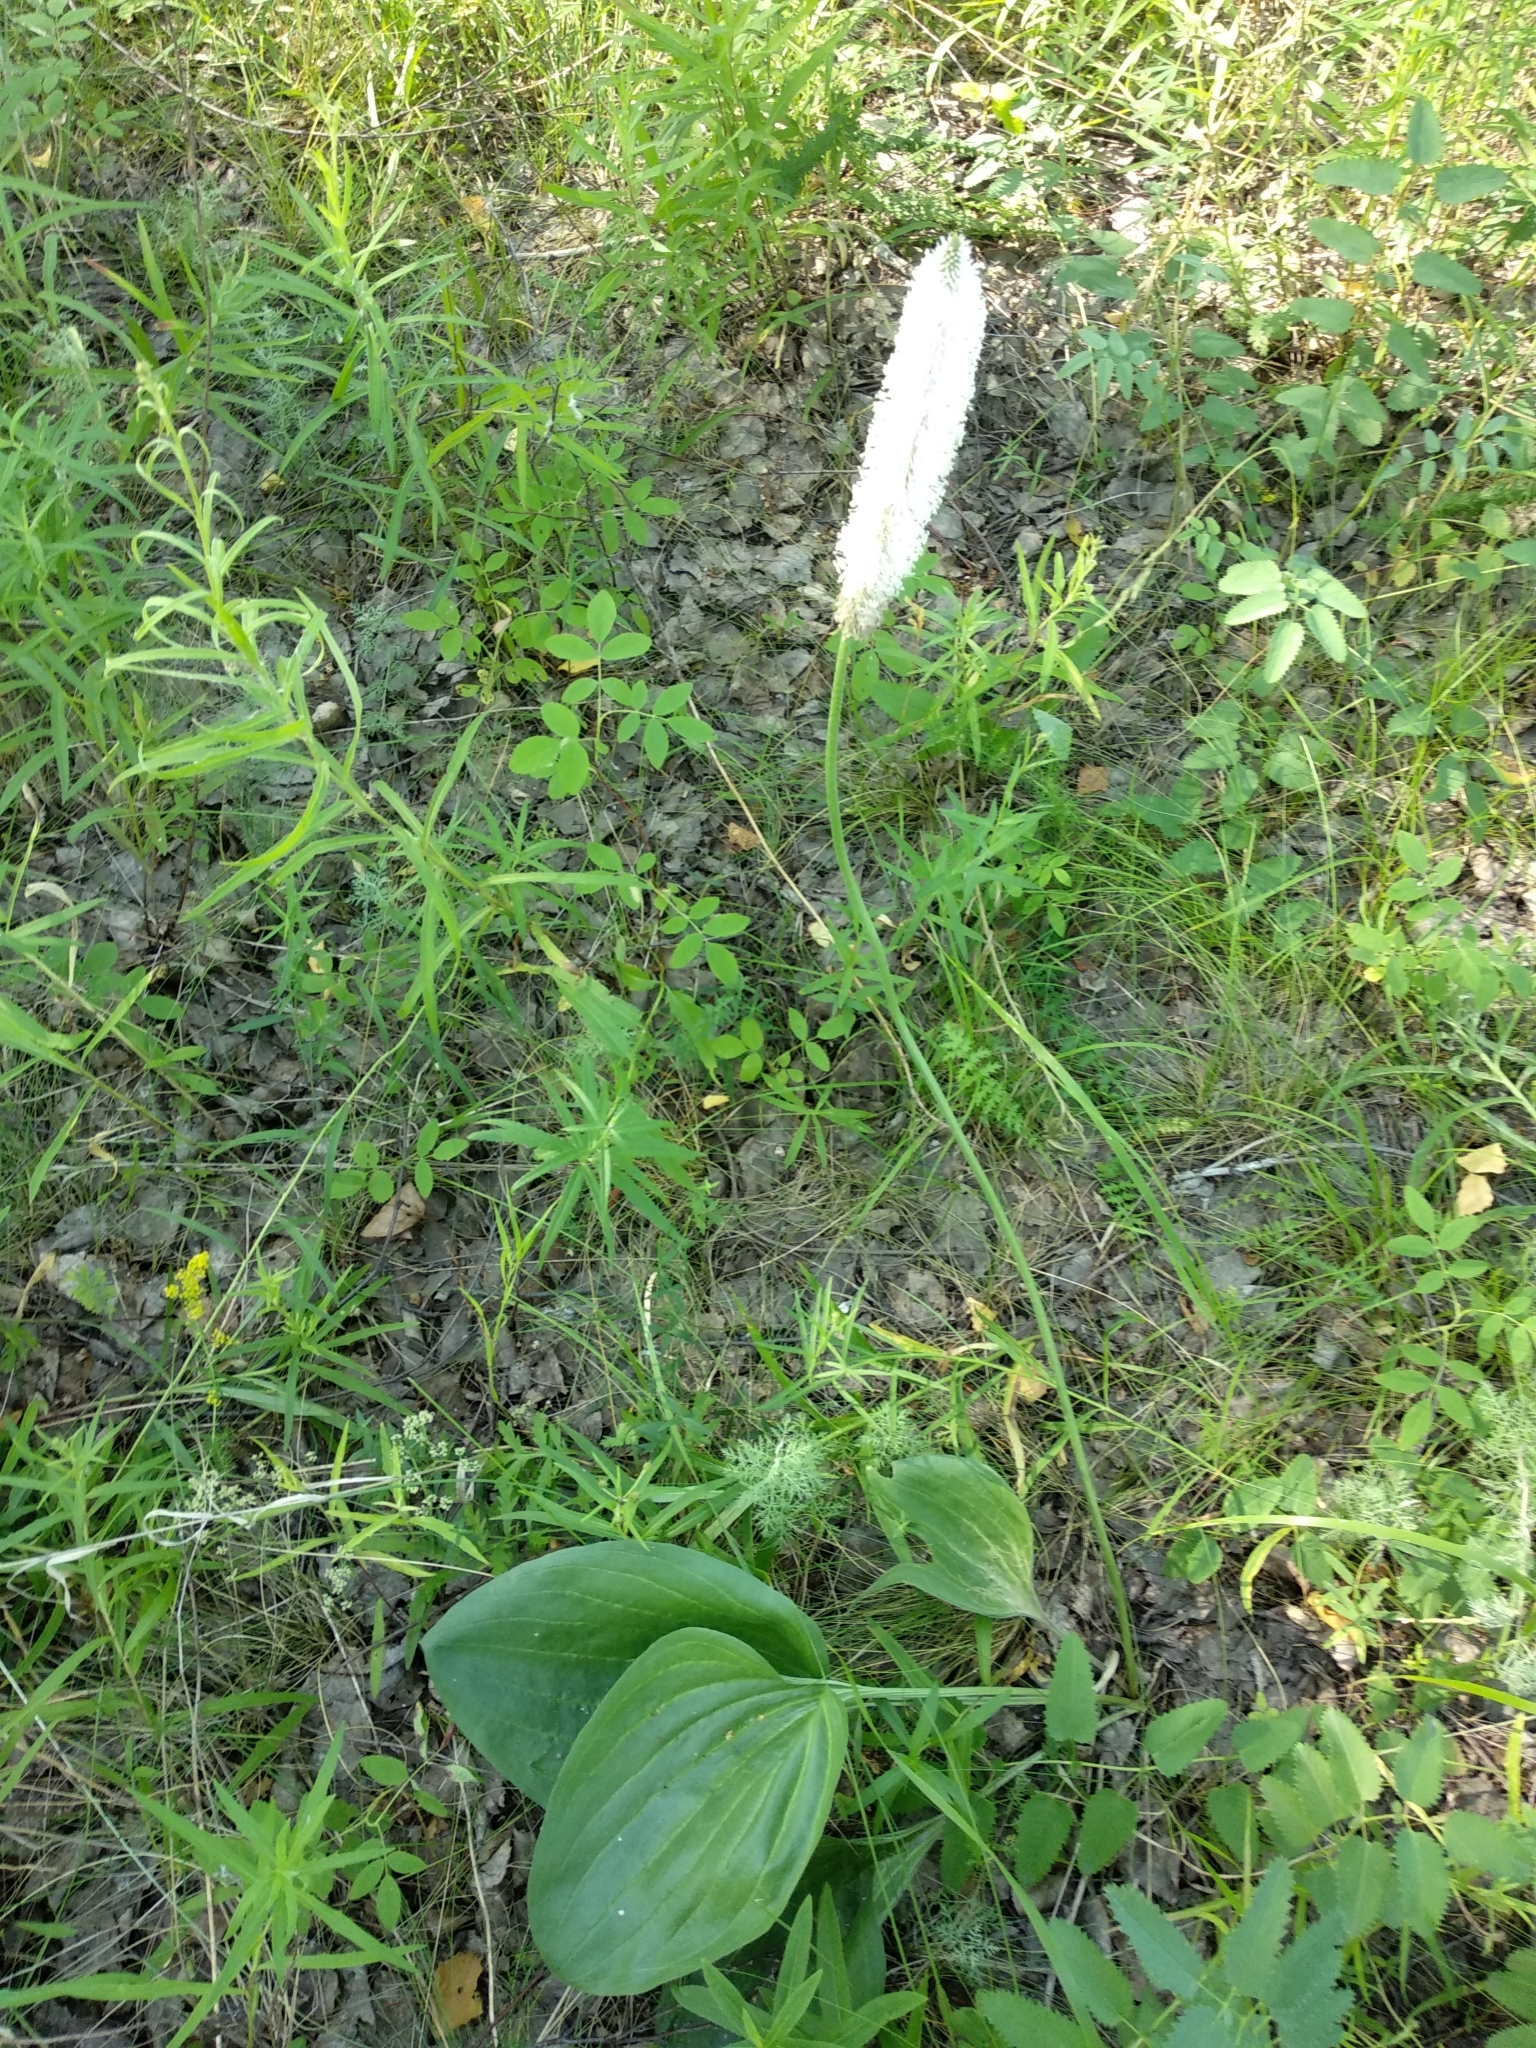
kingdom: Plantae
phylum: Tracheophyta
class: Magnoliopsida
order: Lamiales
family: Plantaginaceae
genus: Plantago
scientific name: Plantago maxima
